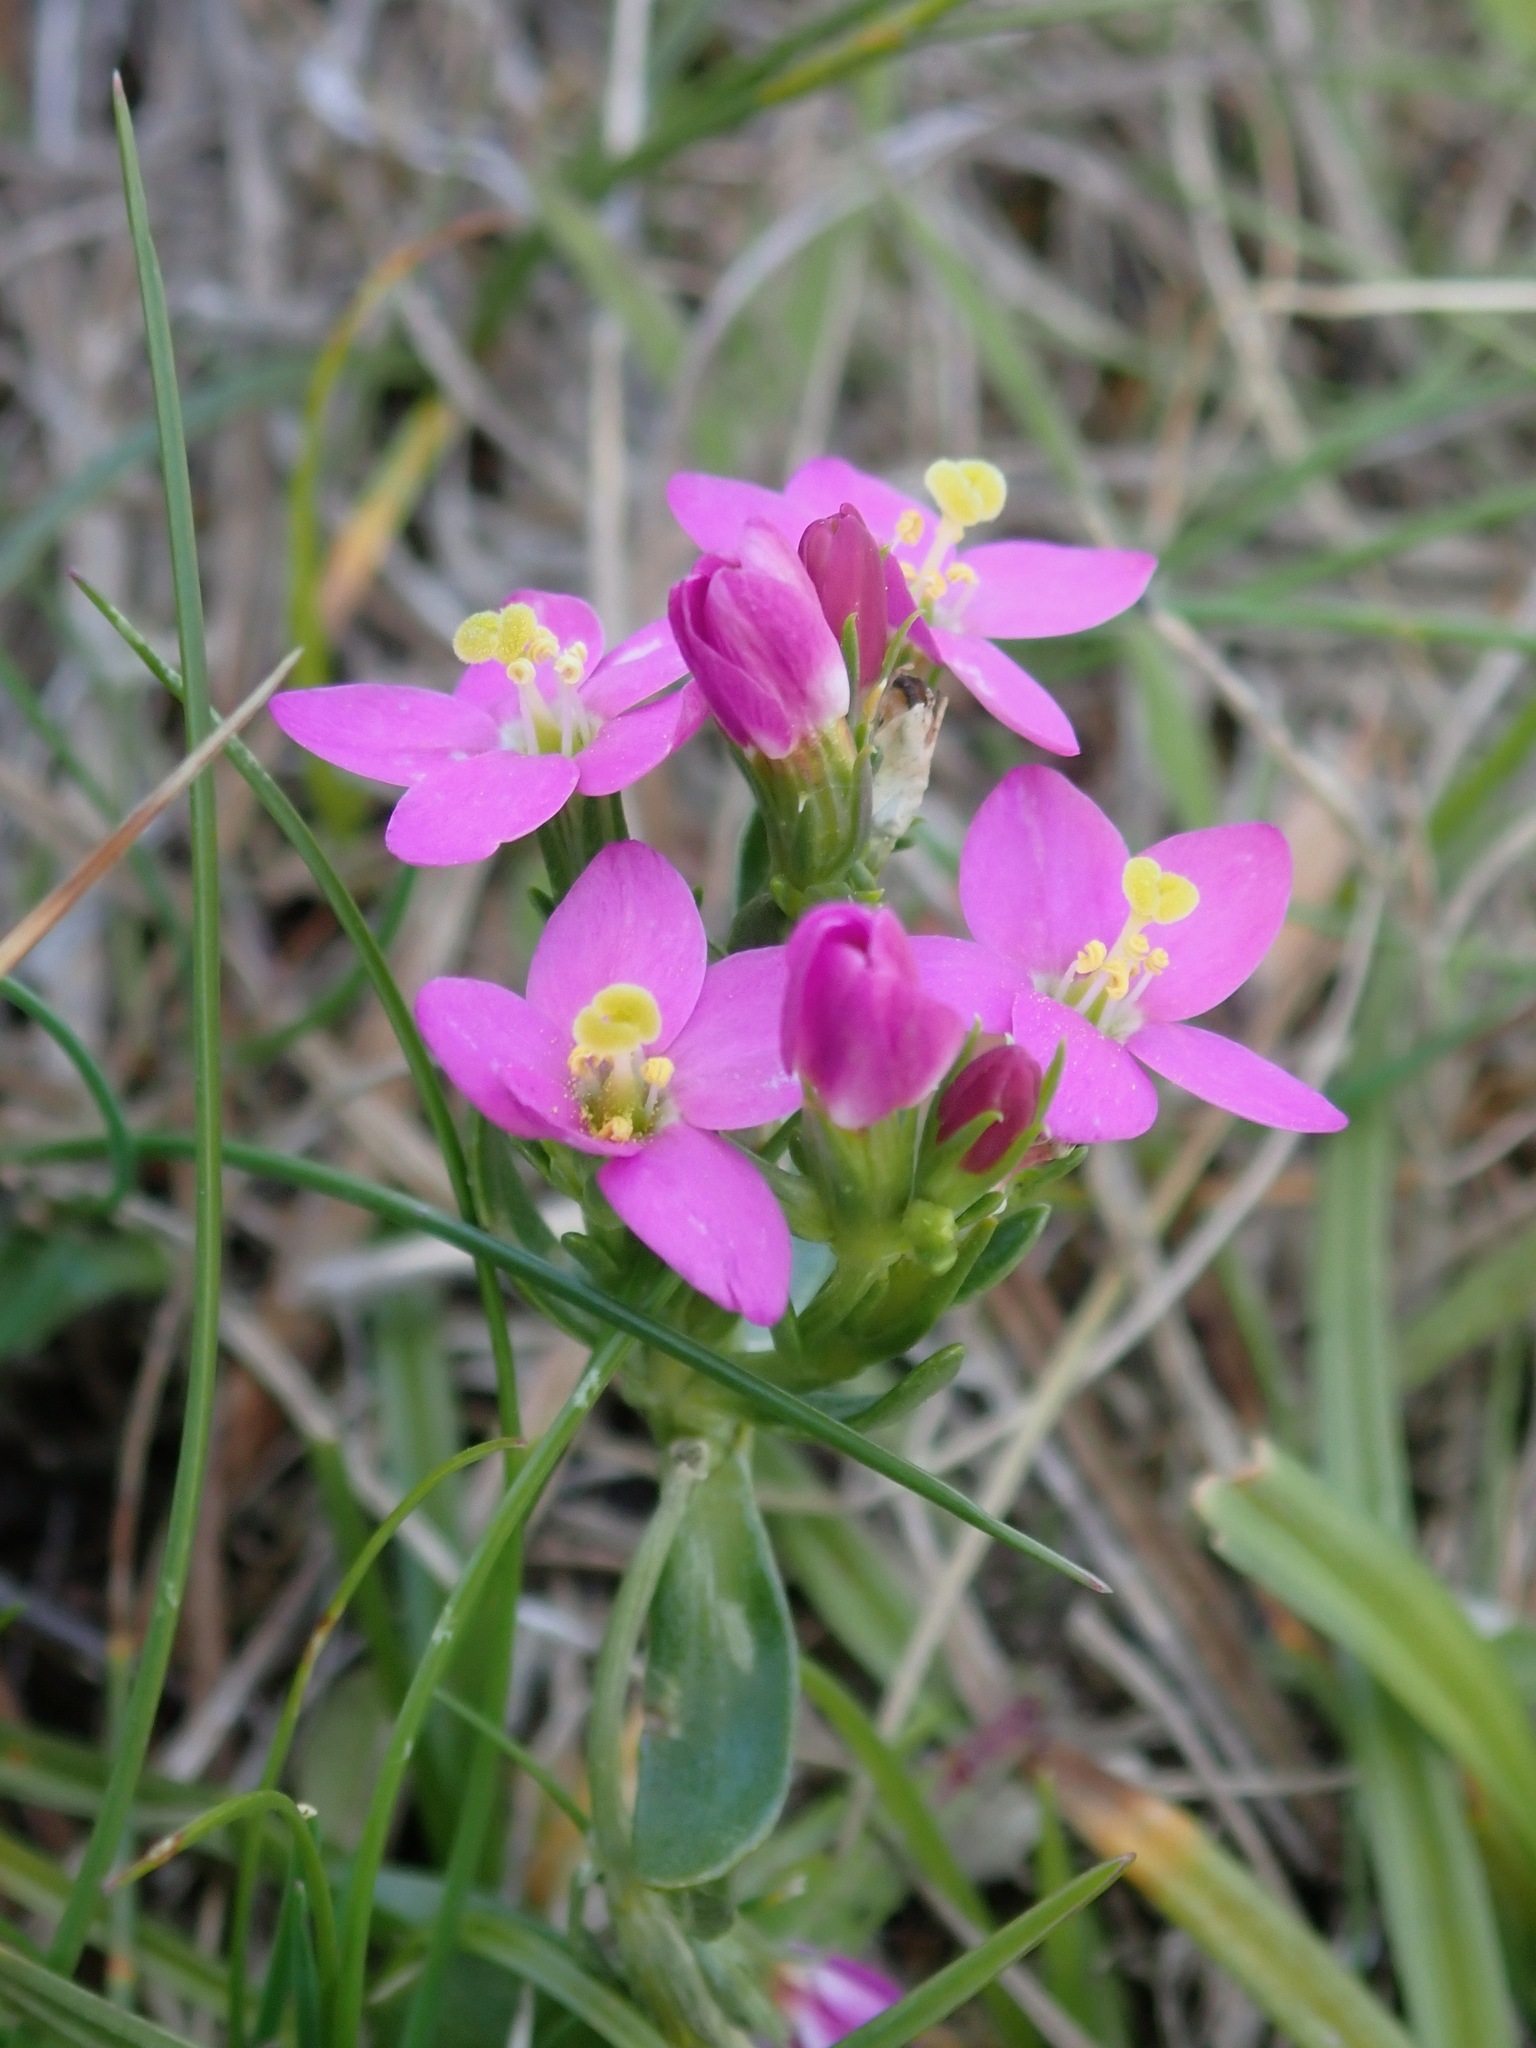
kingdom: Plantae
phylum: Tracheophyta
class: Magnoliopsida
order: Gentianales
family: Gentianaceae
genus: Centaurium
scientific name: Centaurium erythraea
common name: Common centaury
